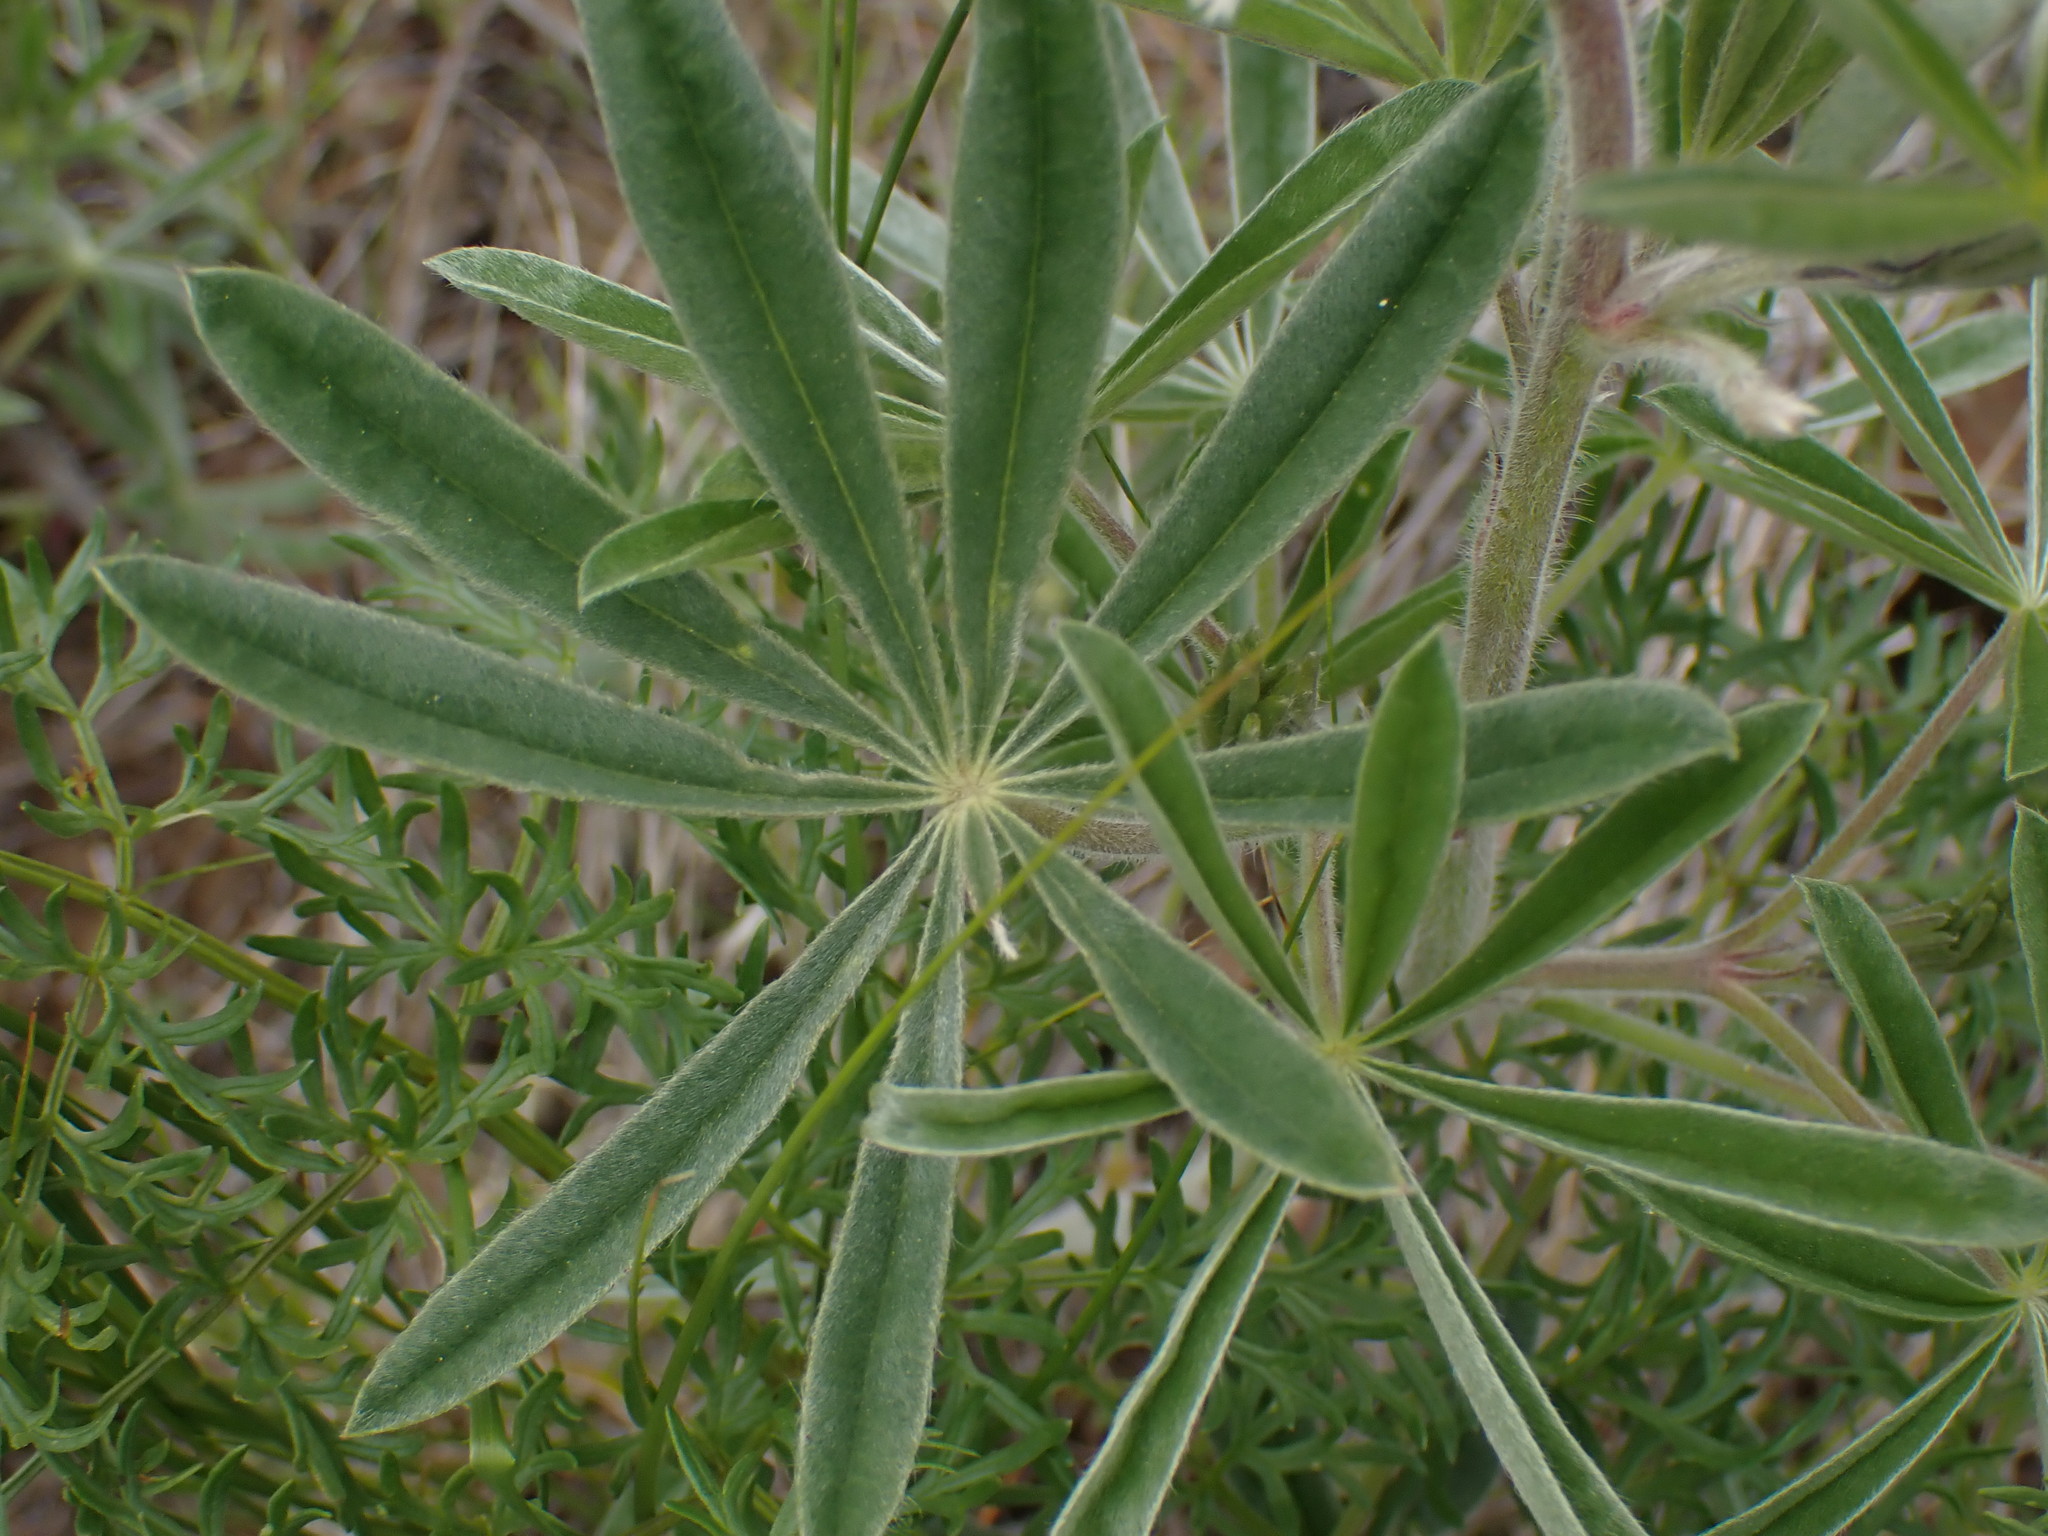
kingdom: Plantae
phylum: Tracheophyta
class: Magnoliopsida
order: Fabales
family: Fabaceae
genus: Lupinus
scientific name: Lupinus sericeus
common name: Silky lupine
